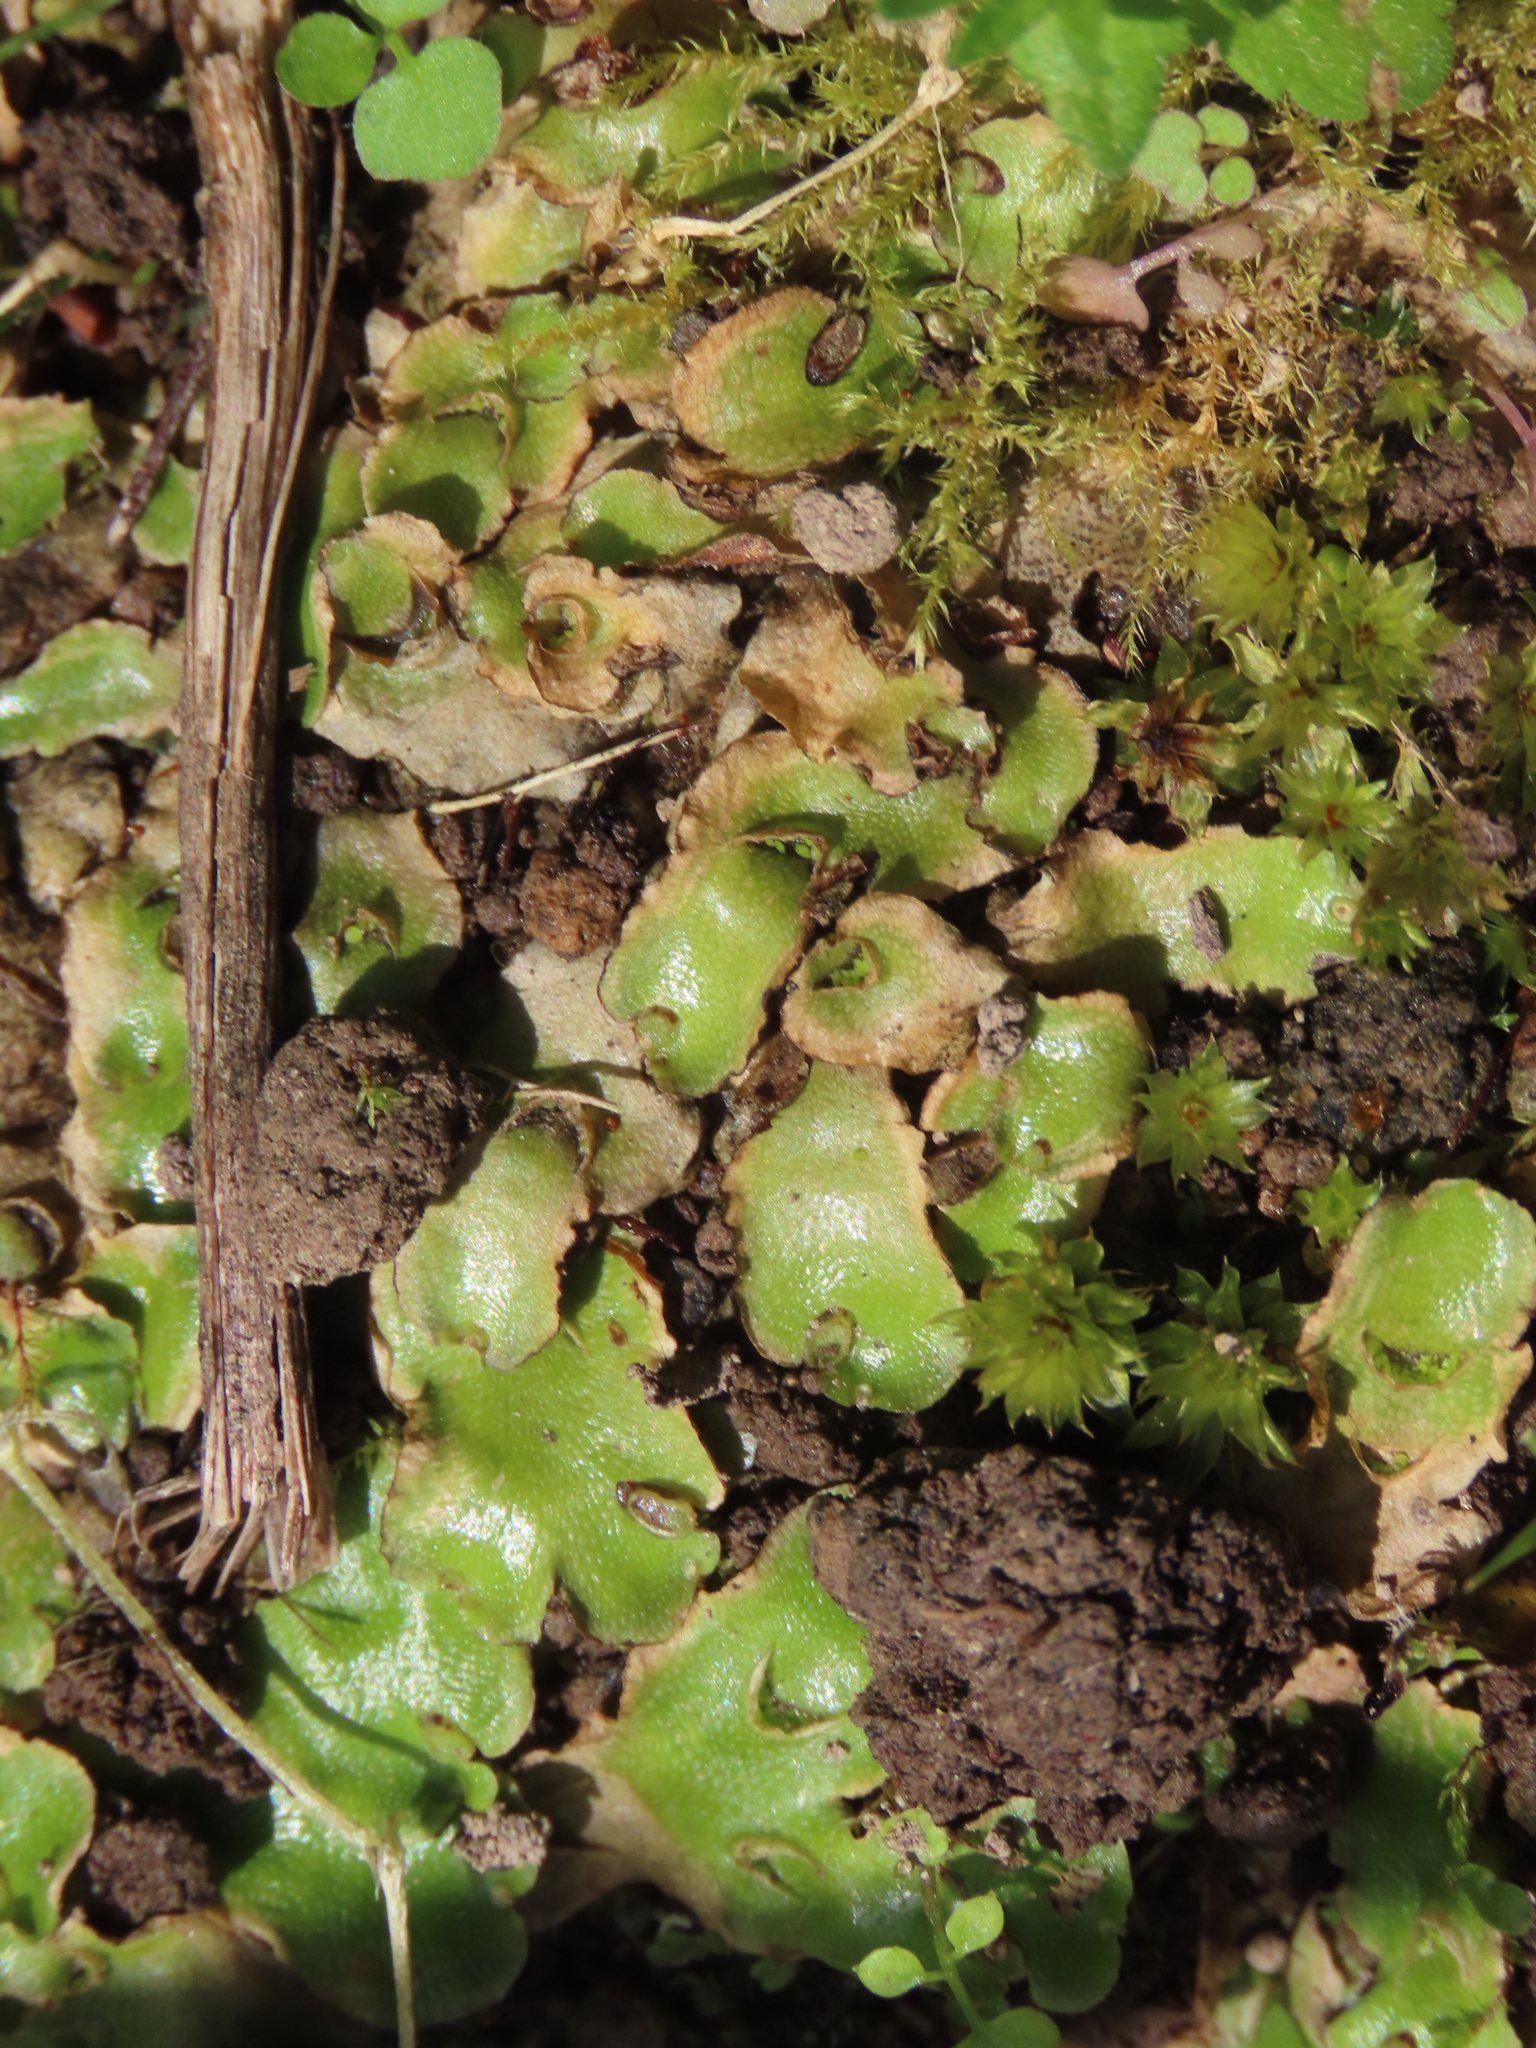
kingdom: Plantae
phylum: Marchantiophyta
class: Marchantiopsida
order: Lunulariales
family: Lunulariaceae
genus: Lunularia
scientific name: Lunularia cruciata
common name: Crescent-cup liverwort
